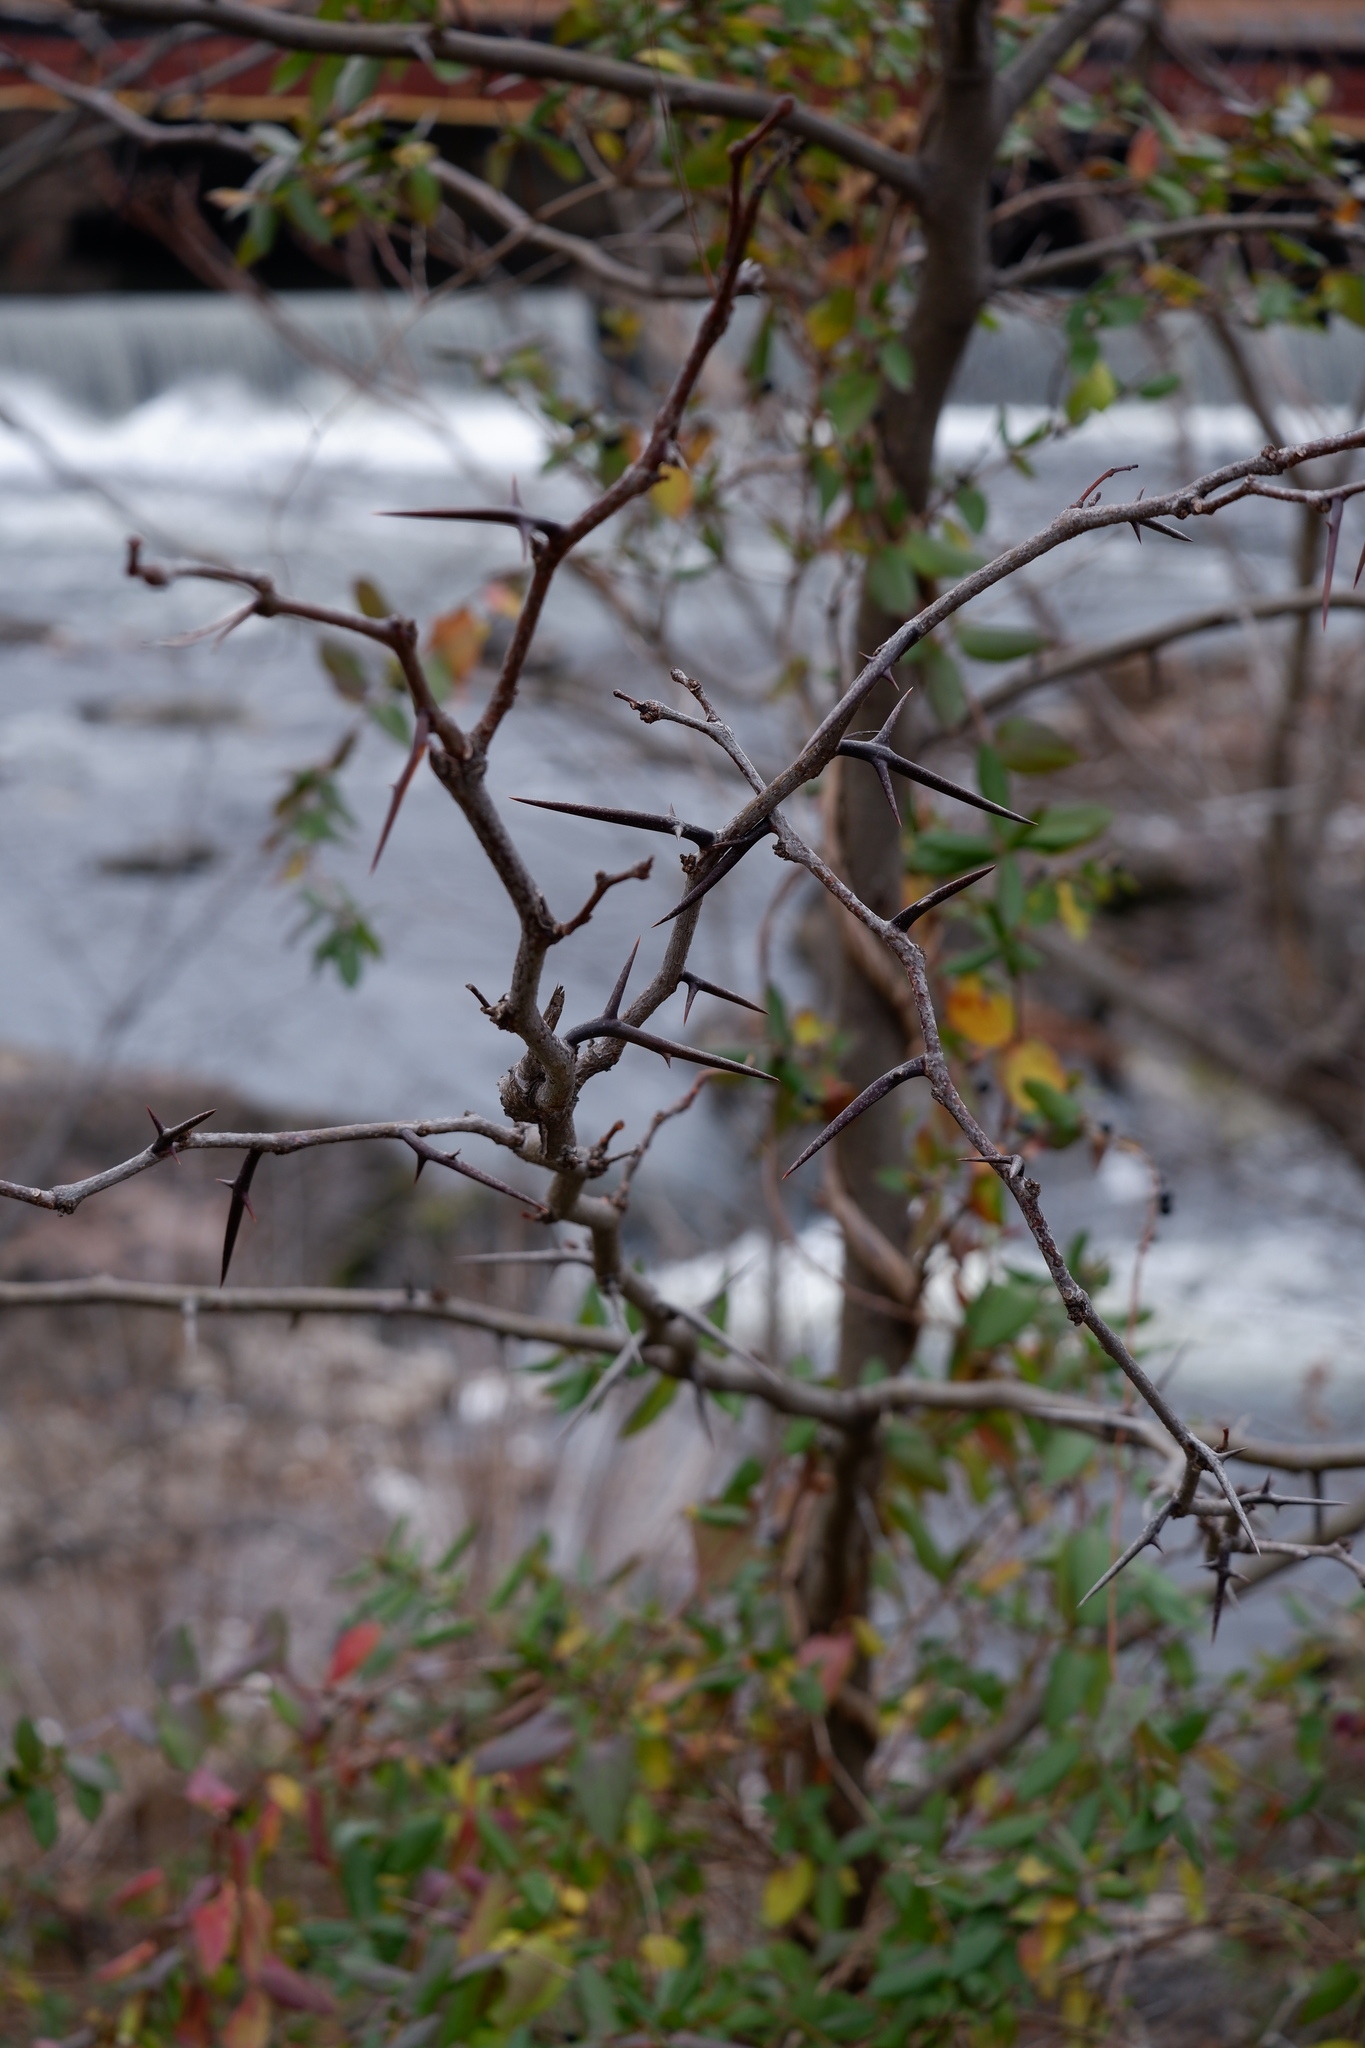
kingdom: Plantae
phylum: Tracheophyta
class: Magnoliopsida
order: Fabales
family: Fabaceae
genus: Gleditsia
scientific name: Gleditsia triacanthos
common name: Common honeylocust
